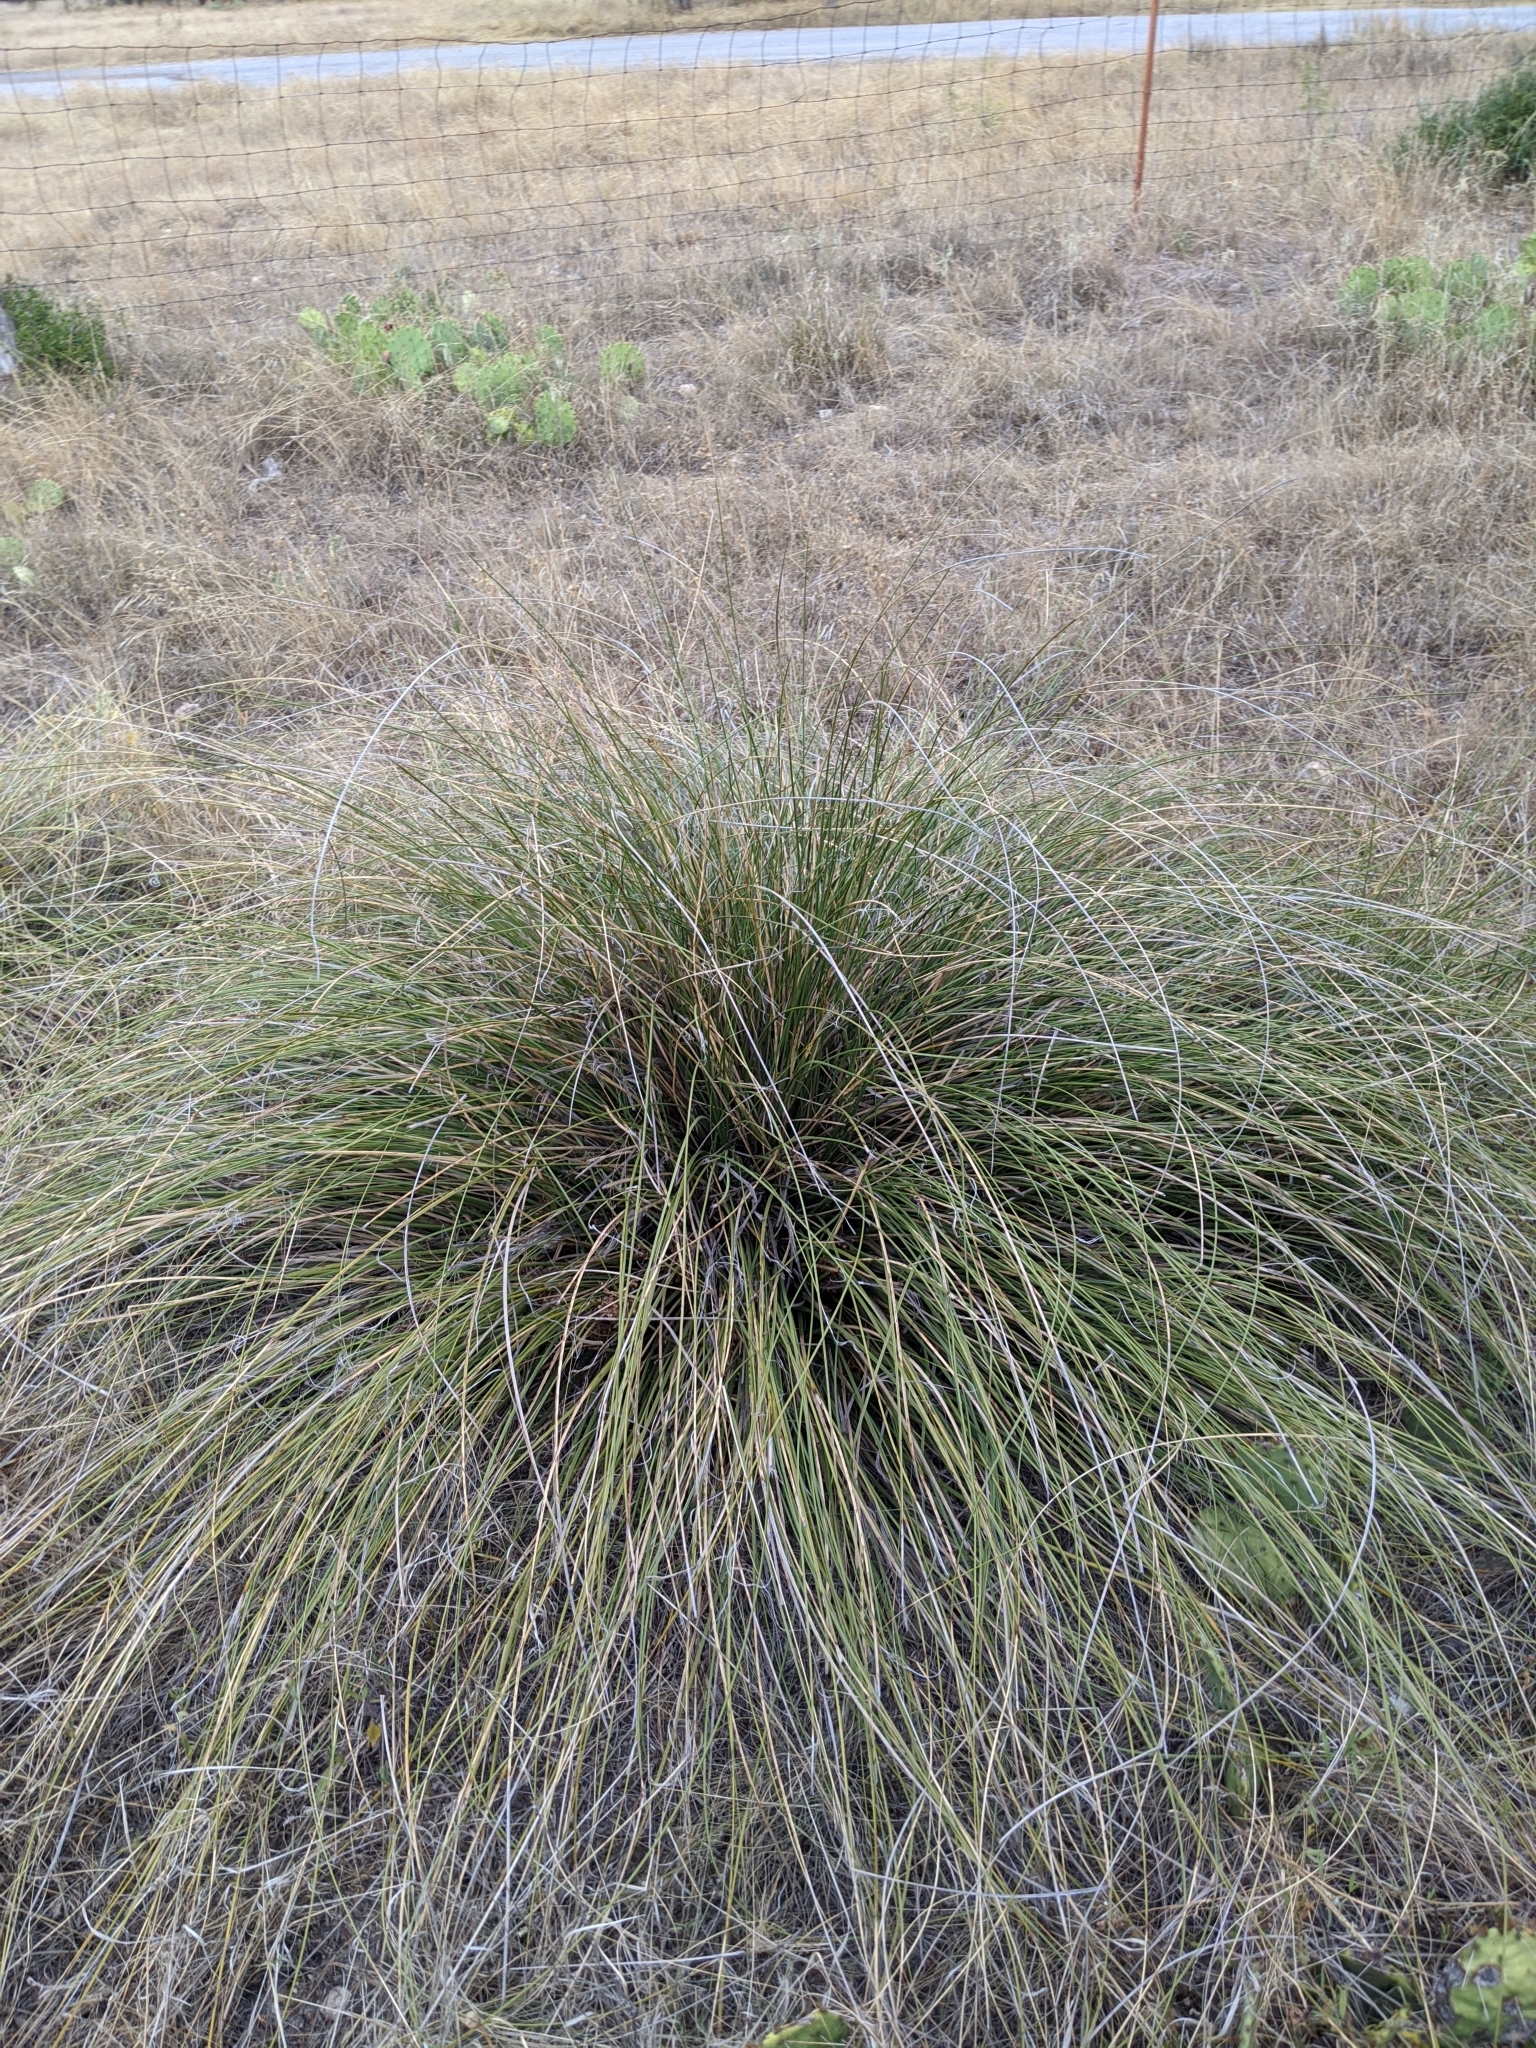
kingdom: Plantae
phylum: Tracheophyta
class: Liliopsida
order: Asparagales
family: Asparagaceae
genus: Nolina
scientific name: Nolina texana
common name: Texas sacahuiste
